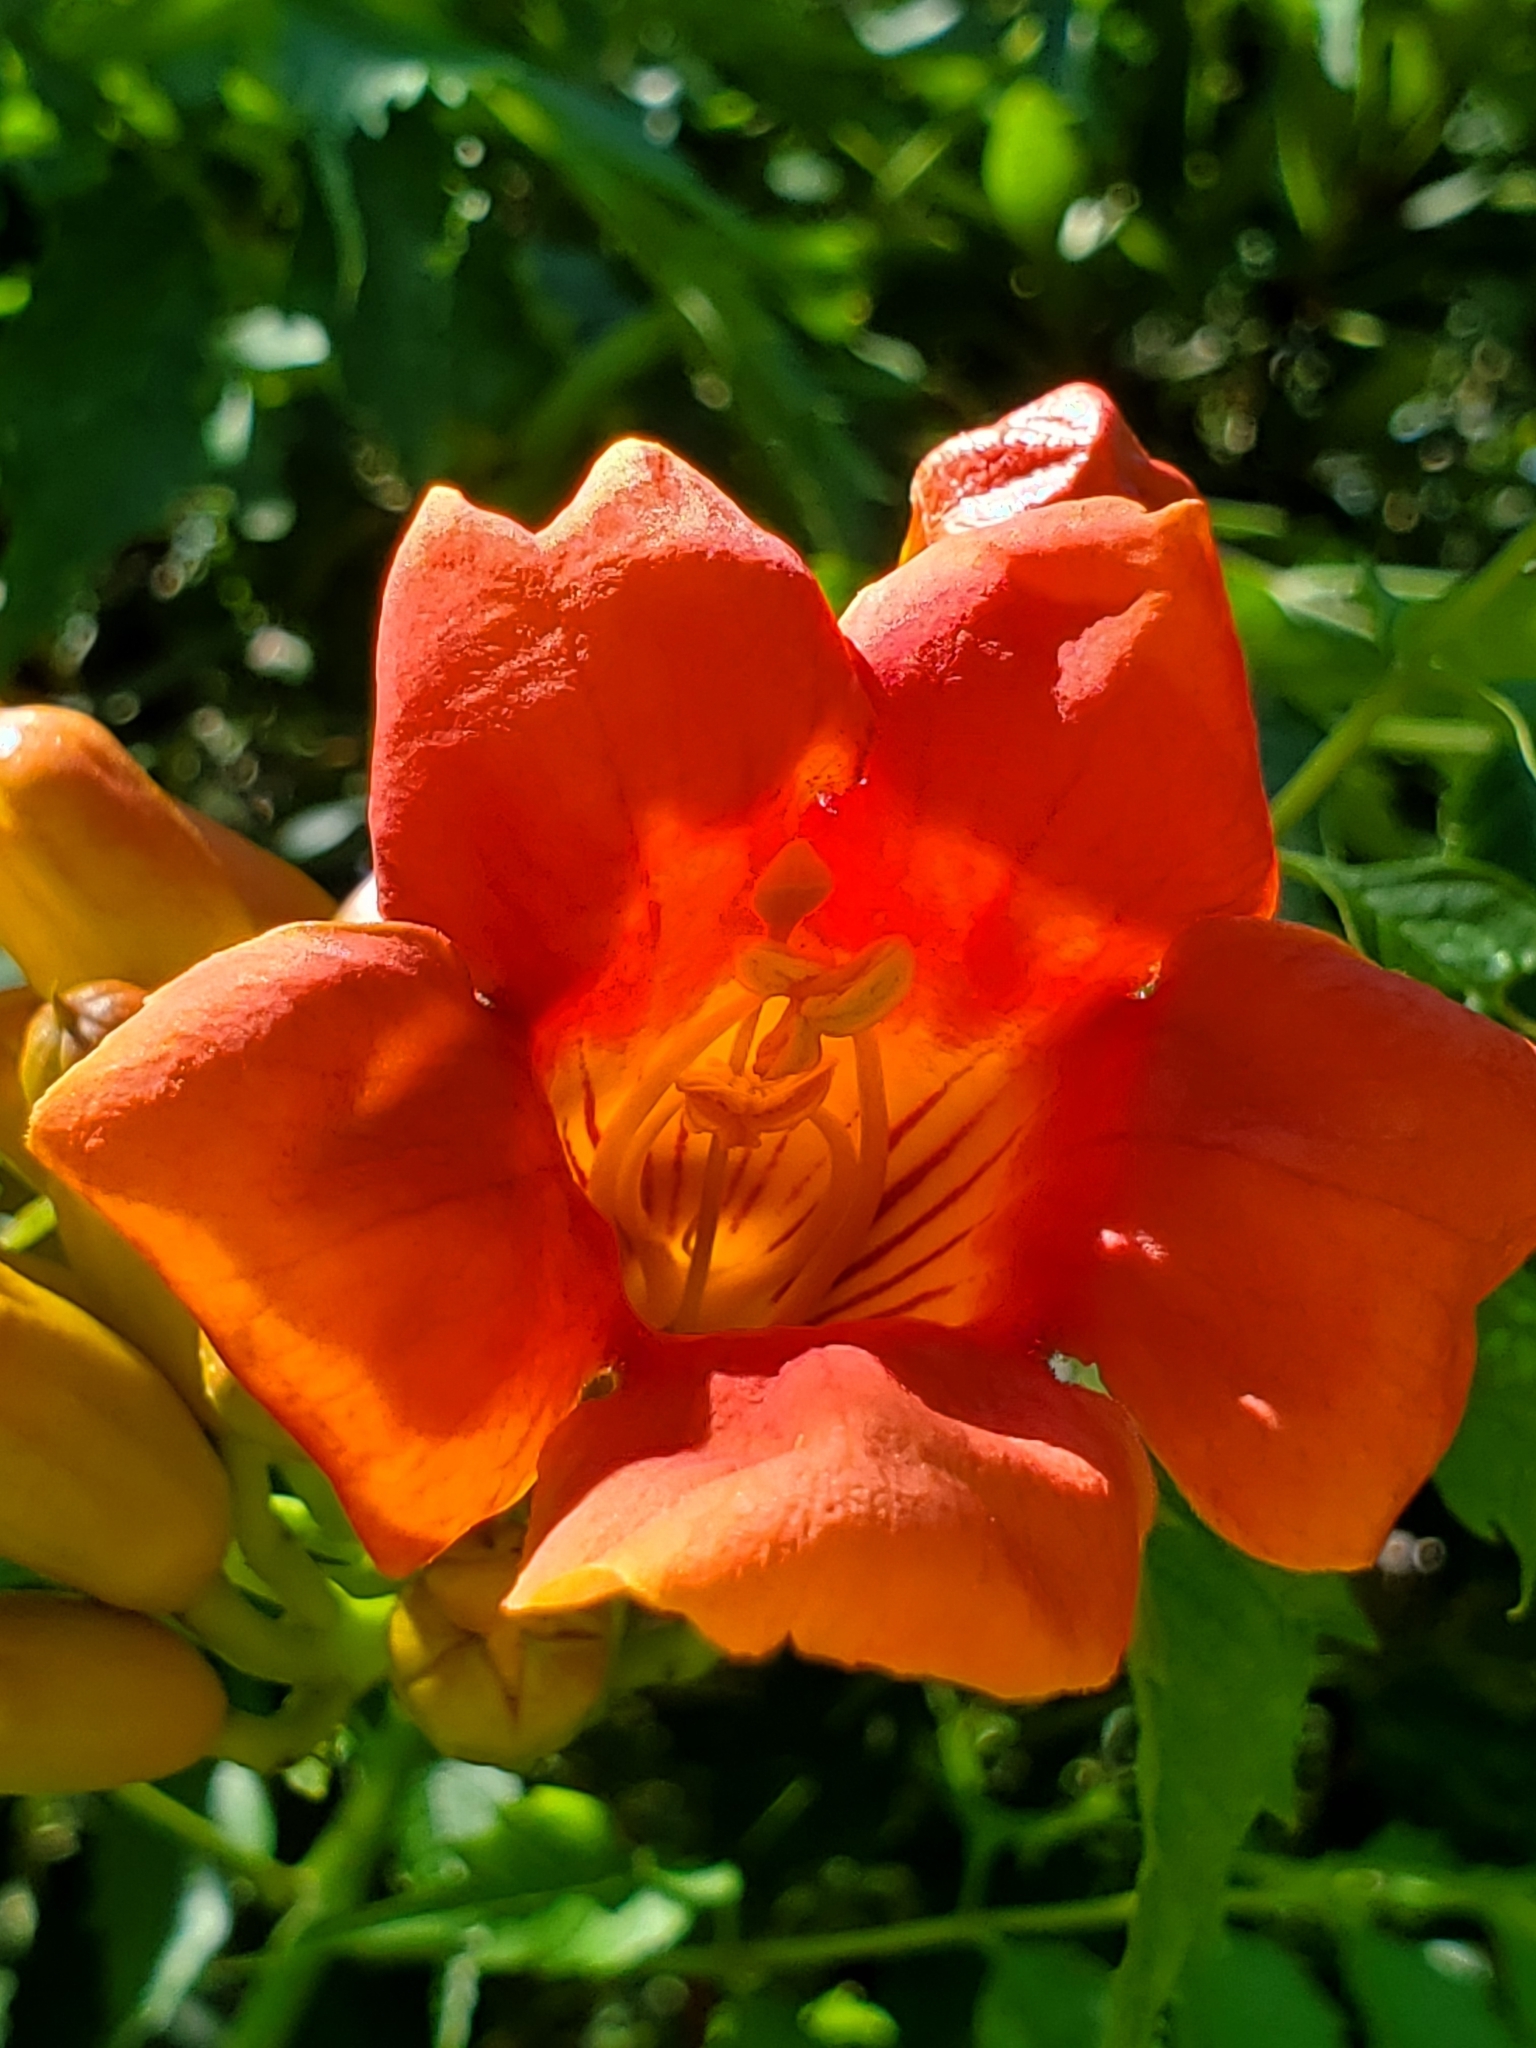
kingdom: Plantae
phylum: Tracheophyta
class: Magnoliopsida
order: Lamiales
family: Bignoniaceae
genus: Campsis
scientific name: Campsis radicans
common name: Trumpet-creeper
